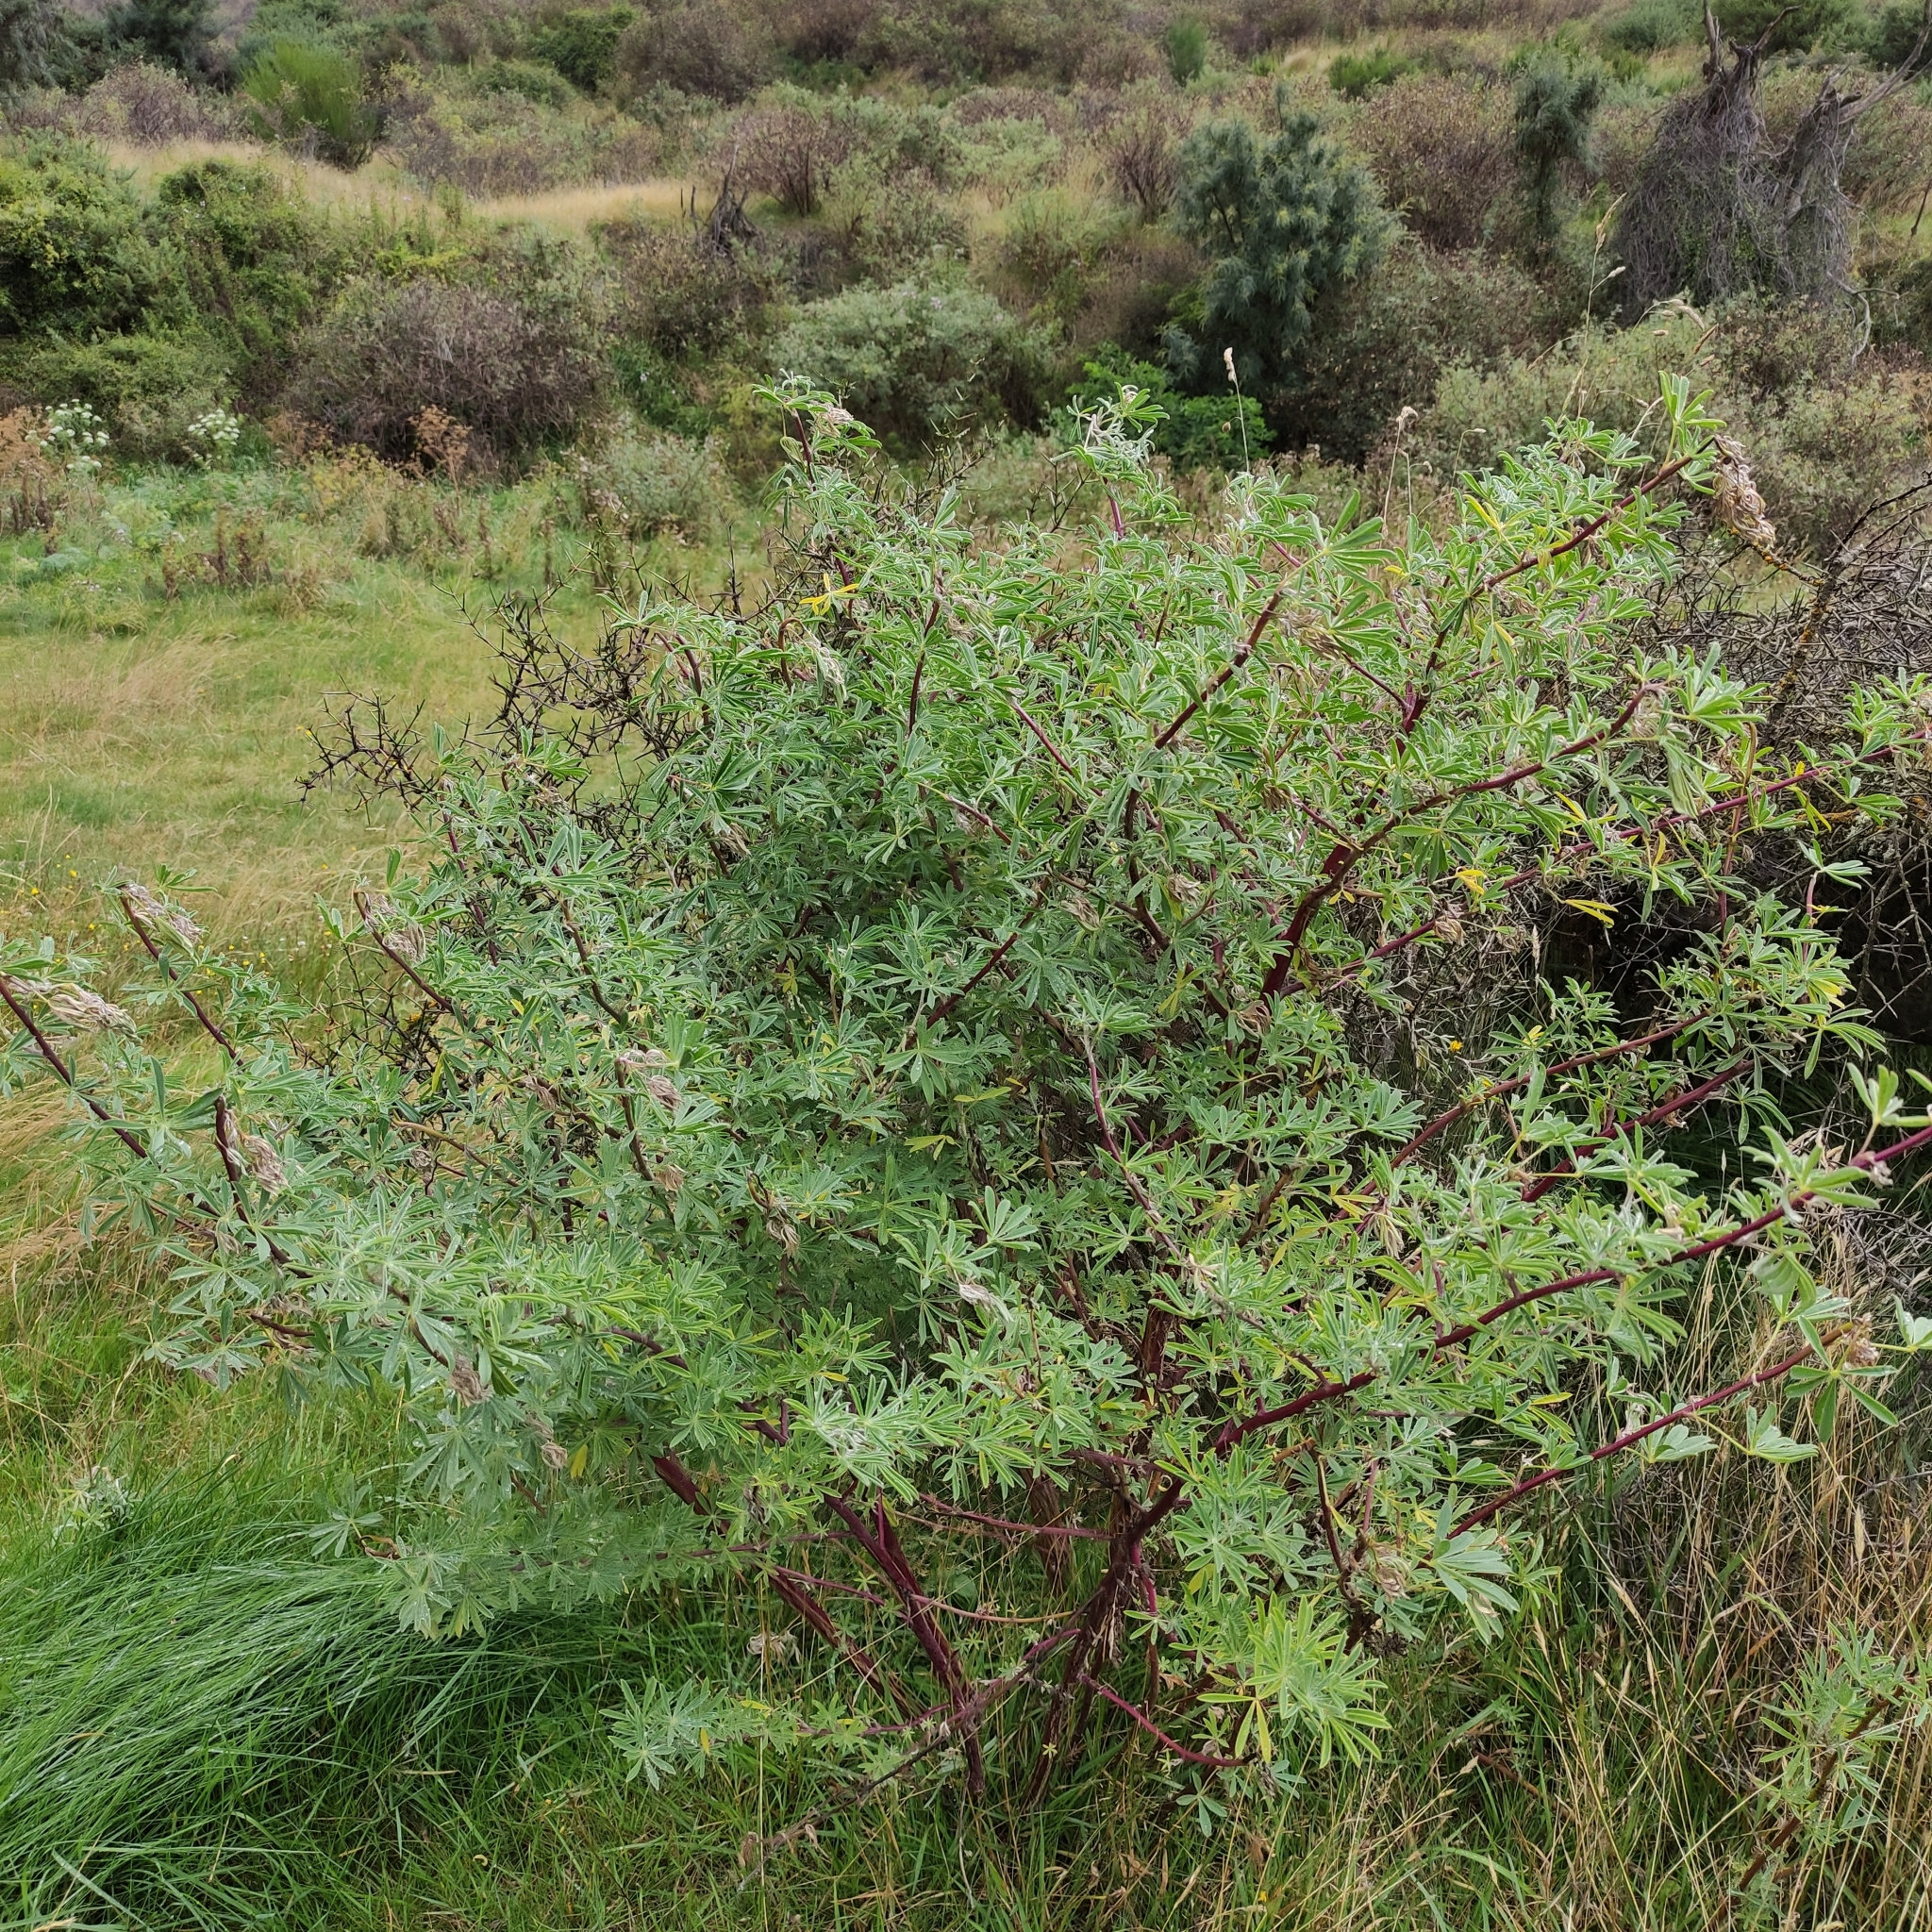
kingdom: Plantae
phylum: Tracheophyta
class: Magnoliopsida
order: Fabales
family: Fabaceae
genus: Lupinus
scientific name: Lupinus arboreus
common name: Yellow bush lupine
